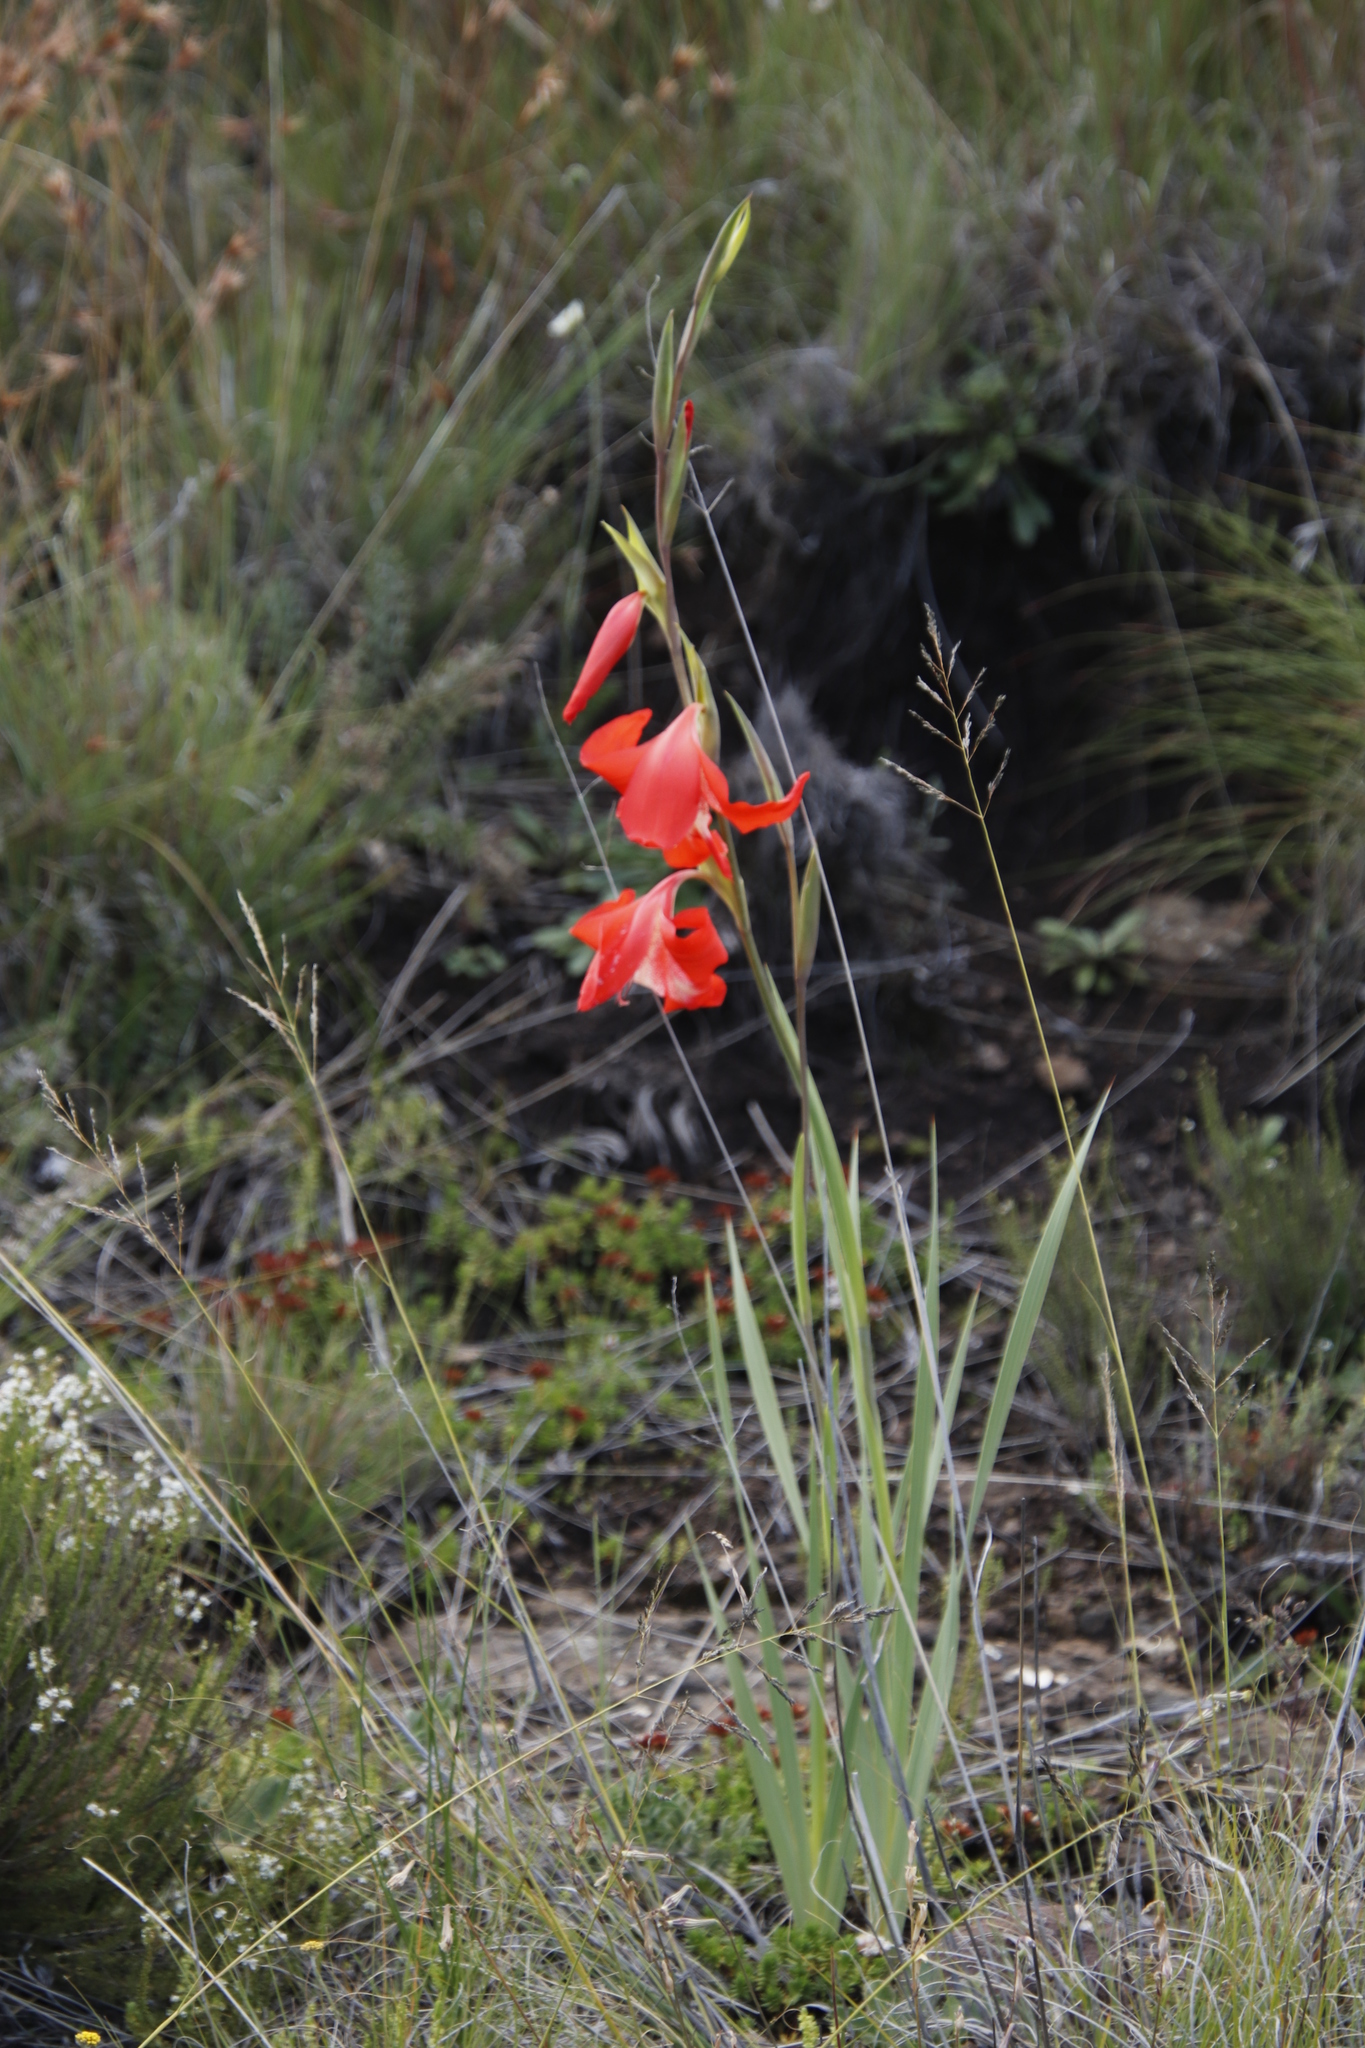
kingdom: Plantae
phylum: Tracheophyta
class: Liliopsida
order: Asparagales
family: Iridaceae
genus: Gladiolus
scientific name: Gladiolus saundersii
